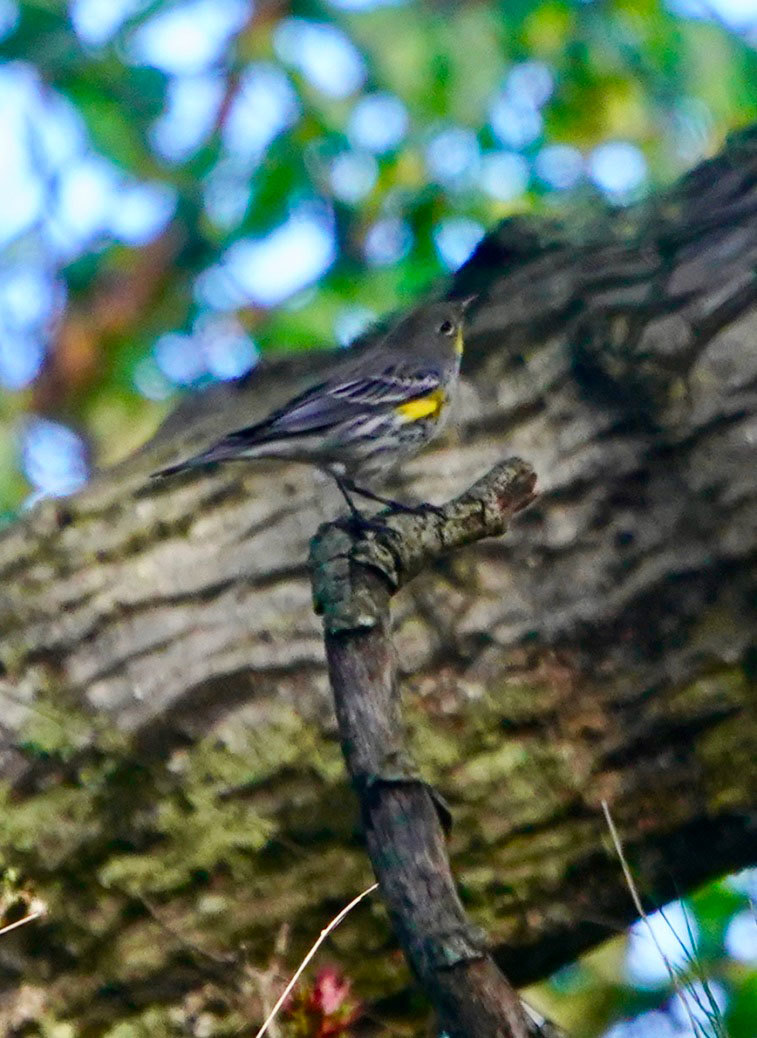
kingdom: Animalia
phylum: Chordata
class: Aves
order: Passeriformes
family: Parulidae
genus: Setophaga
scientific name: Setophaga auduboni
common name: Audubon's warbler
